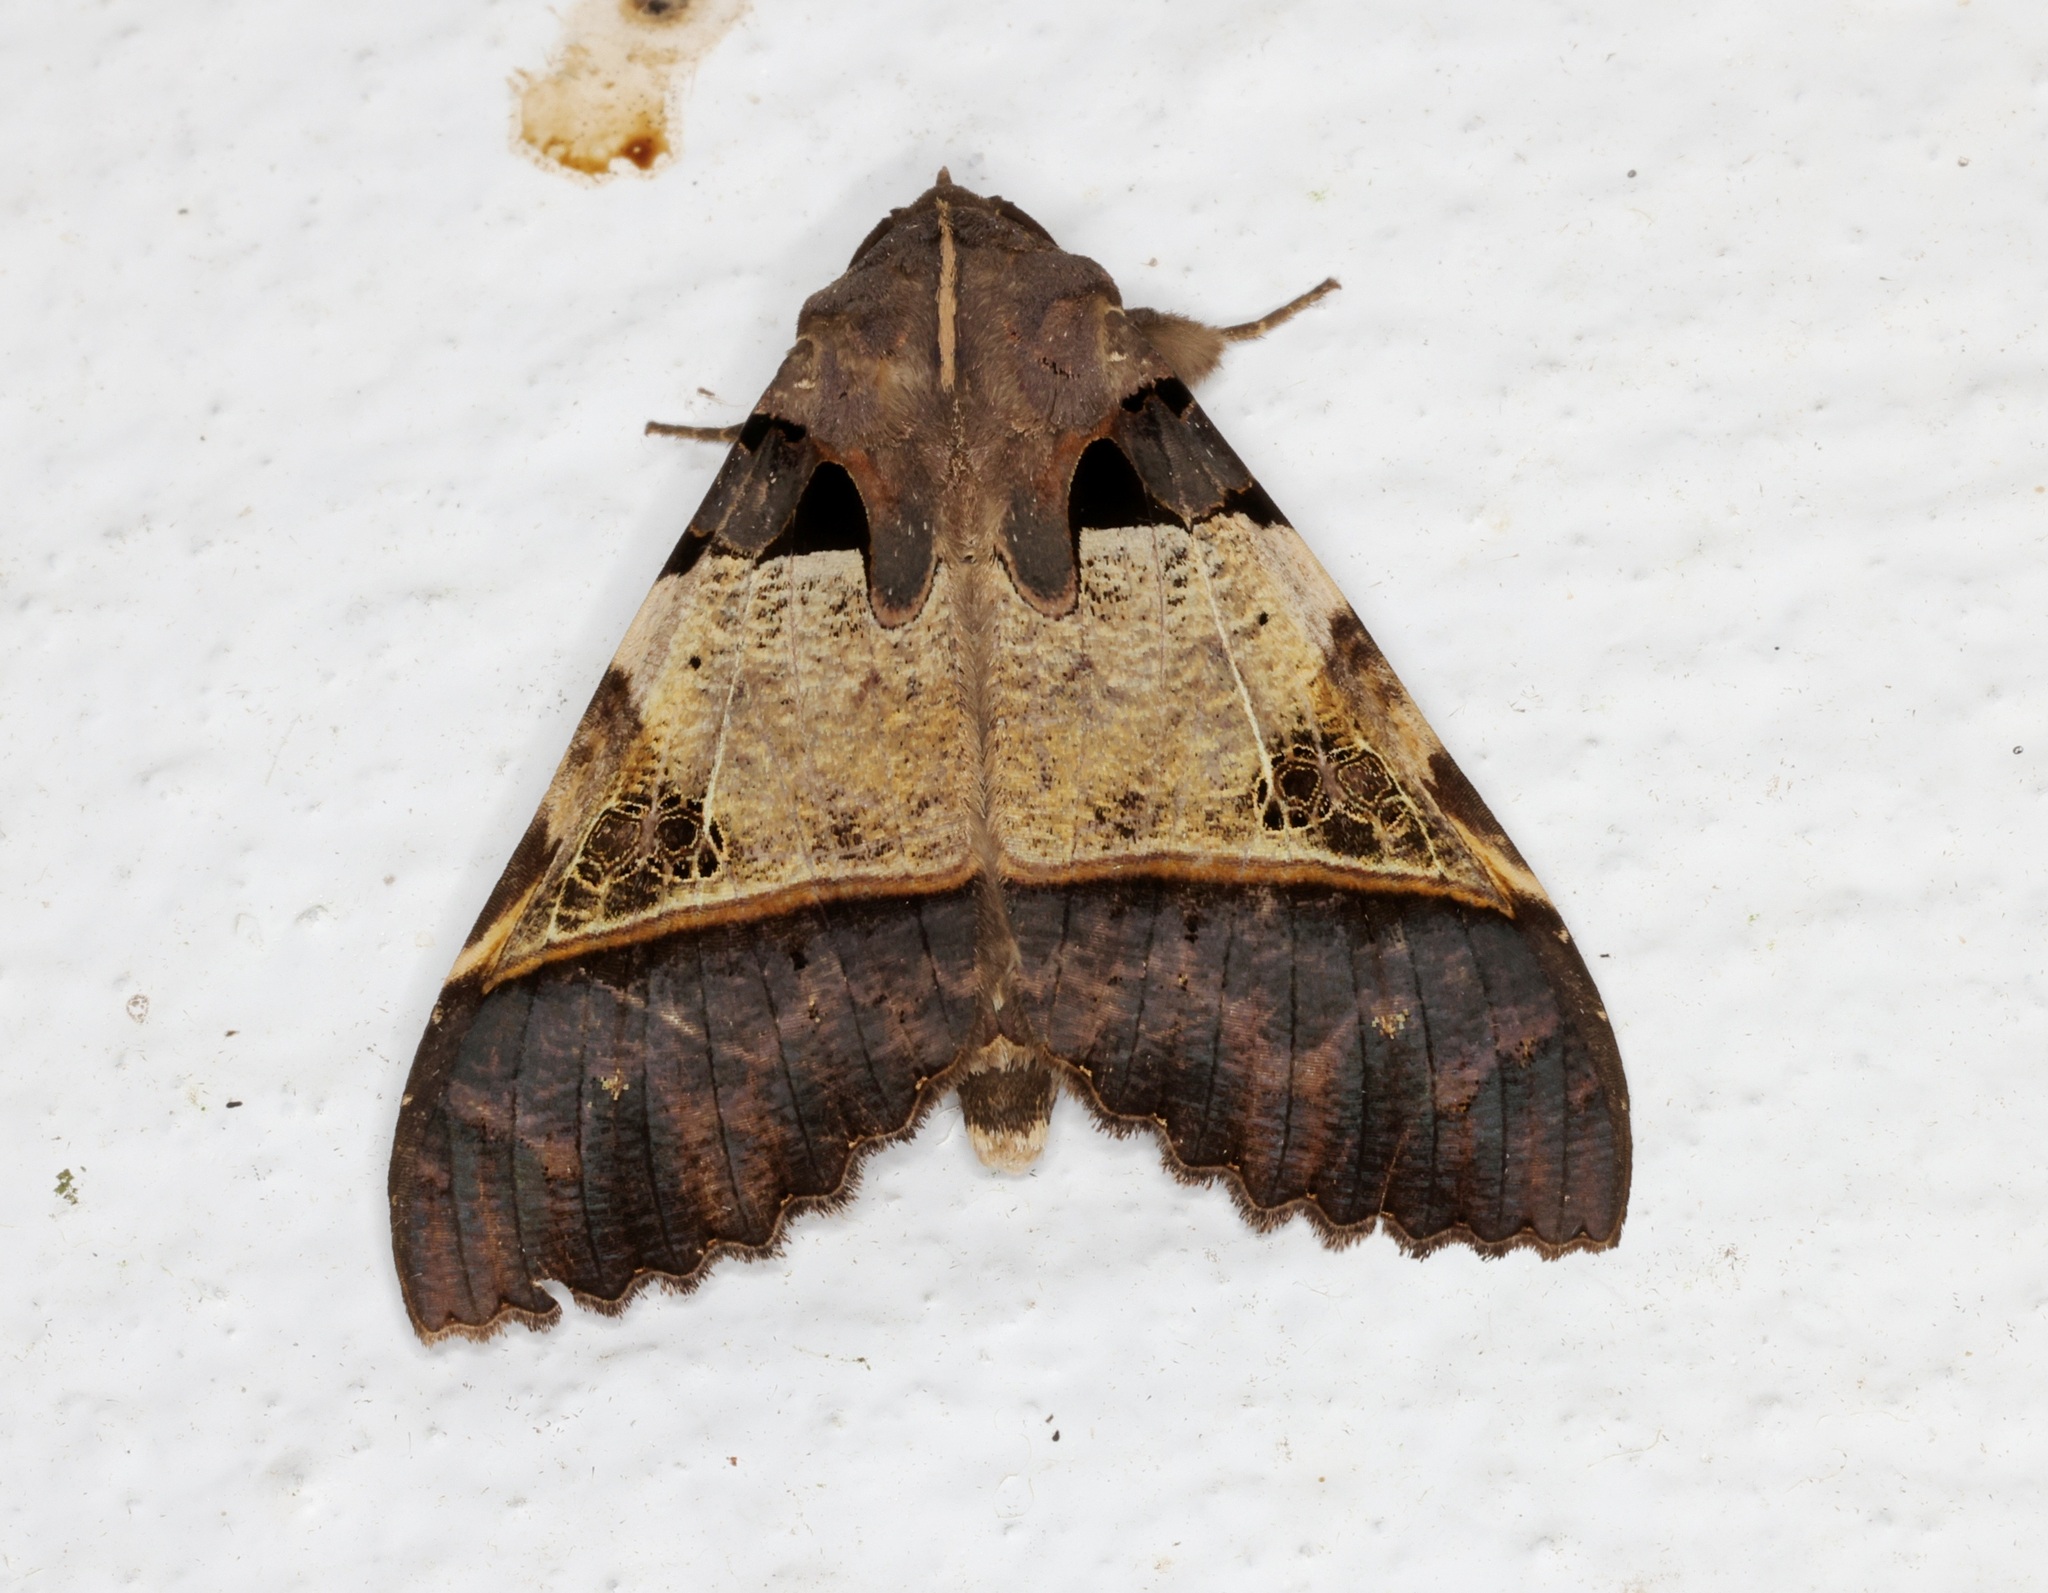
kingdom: Animalia
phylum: Arthropoda
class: Insecta
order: Lepidoptera
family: Erebidae
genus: Serrodes
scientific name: Serrodes campana
